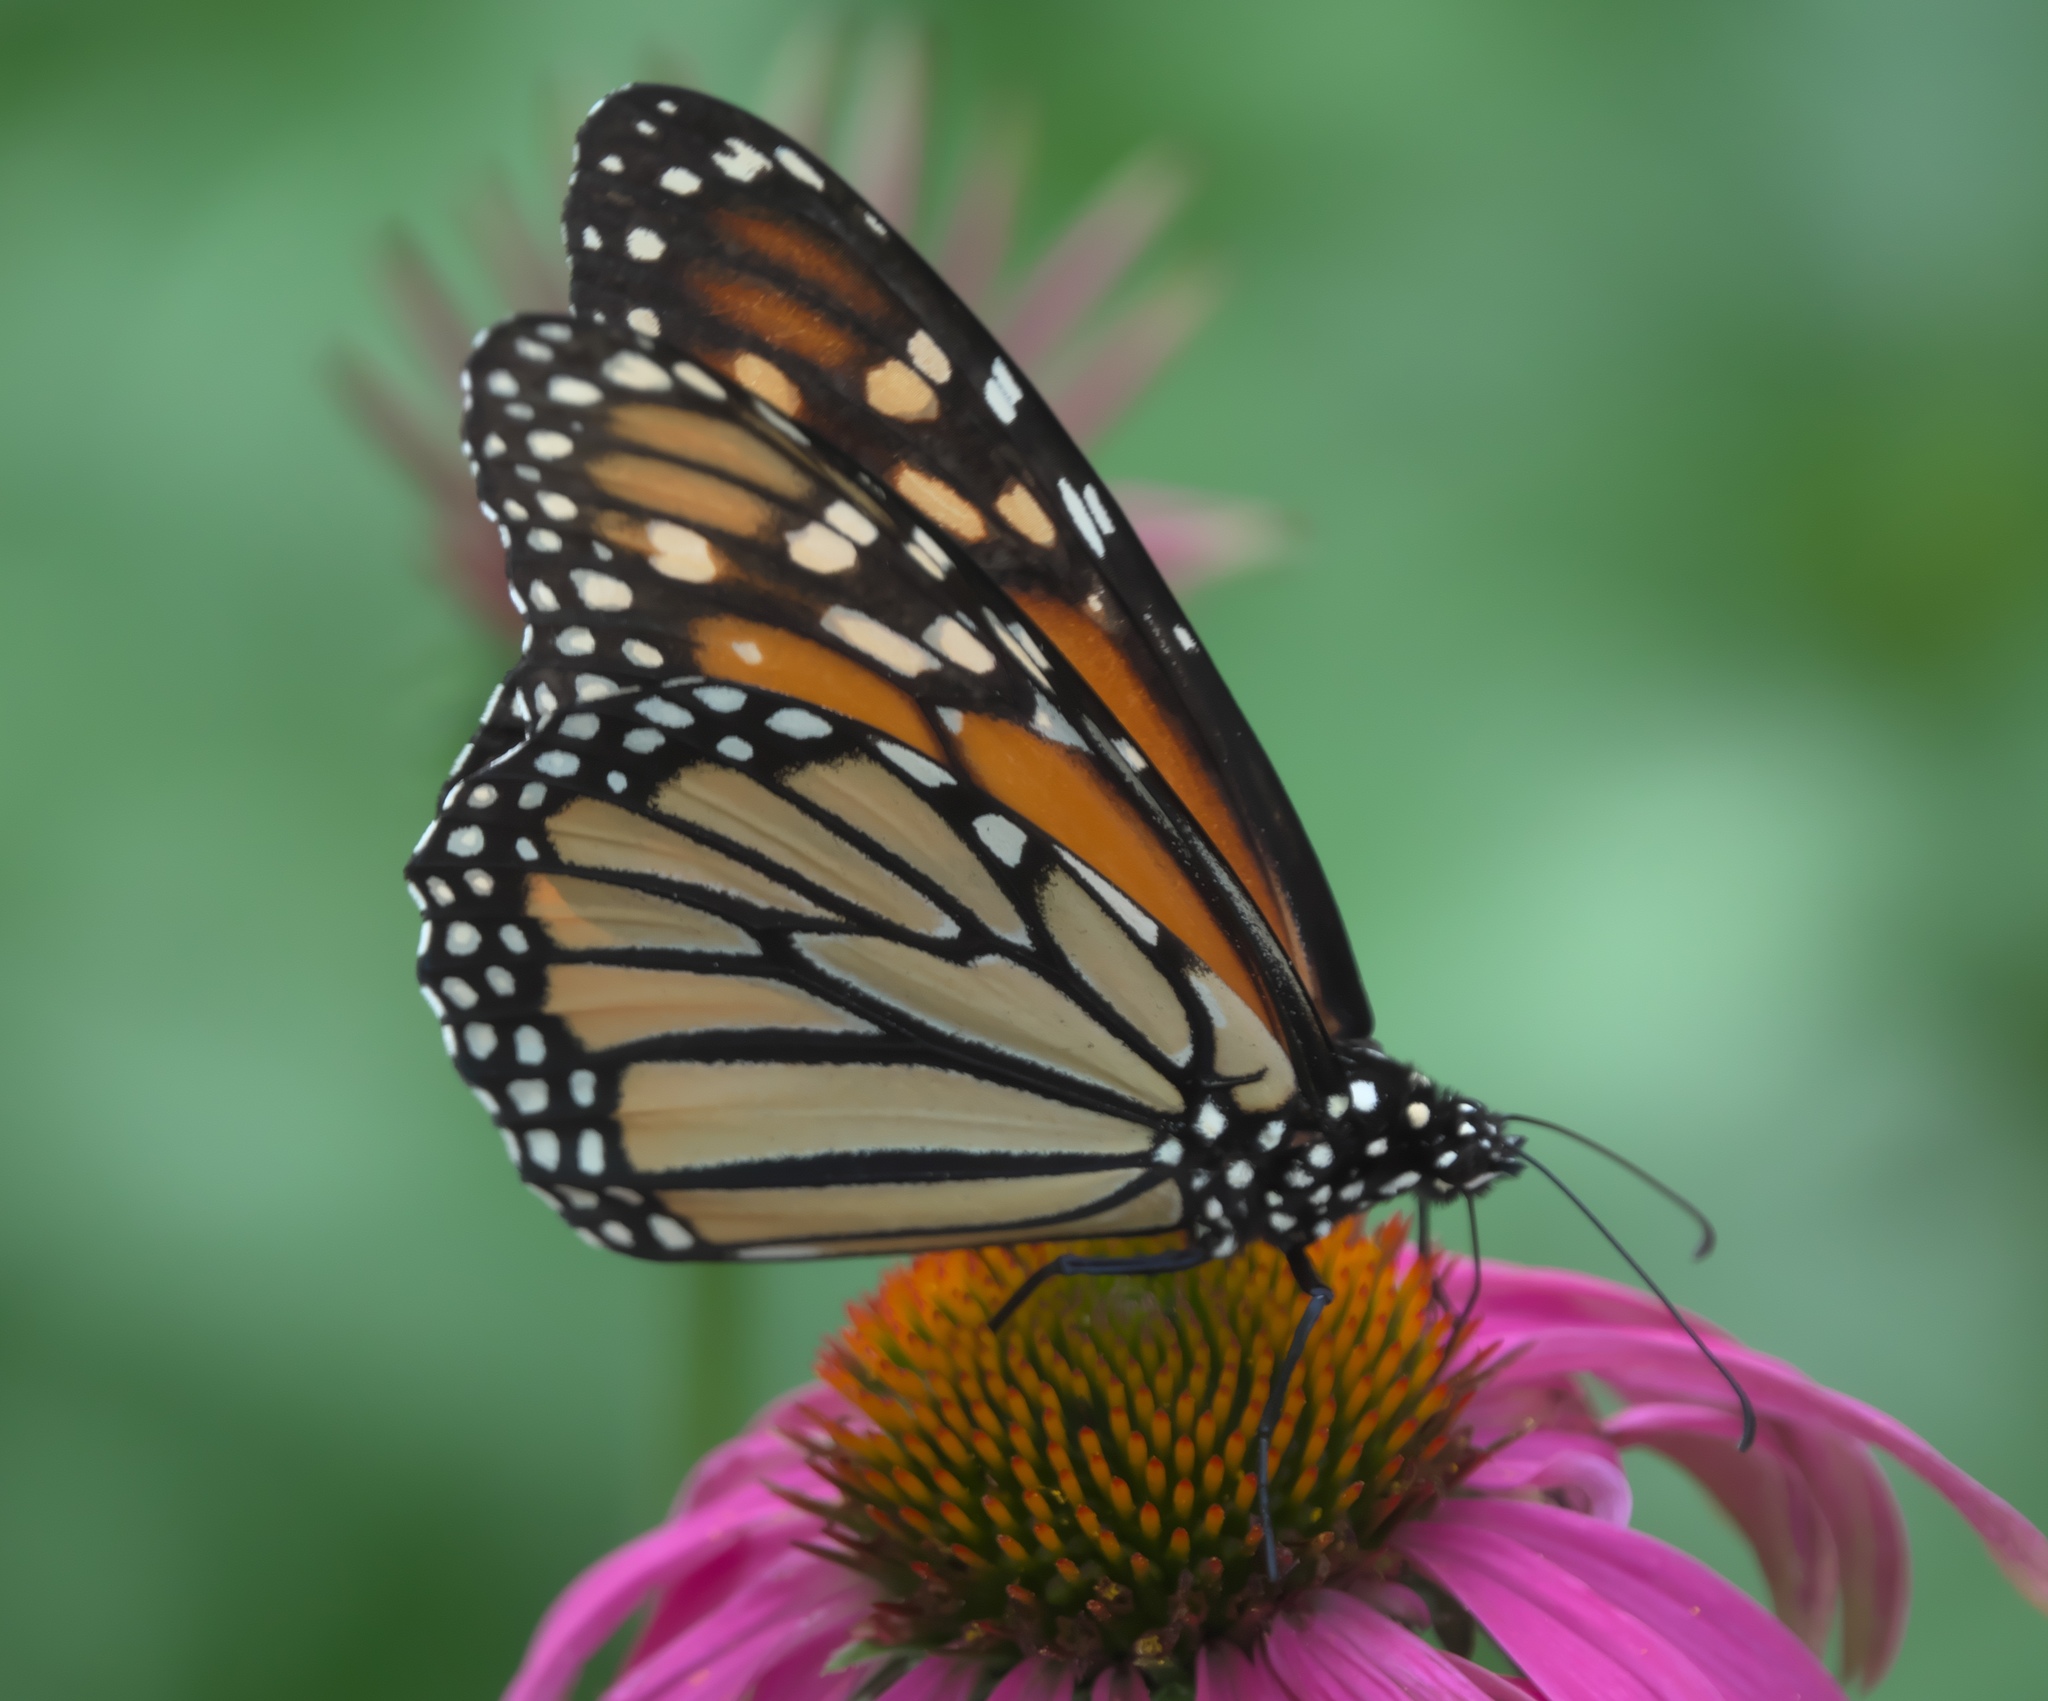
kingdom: Animalia
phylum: Arthropoda
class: Insecta
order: Lepidoptera
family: Nymphalidae
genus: Danaus
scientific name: Danaus plexippus
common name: Monarch
